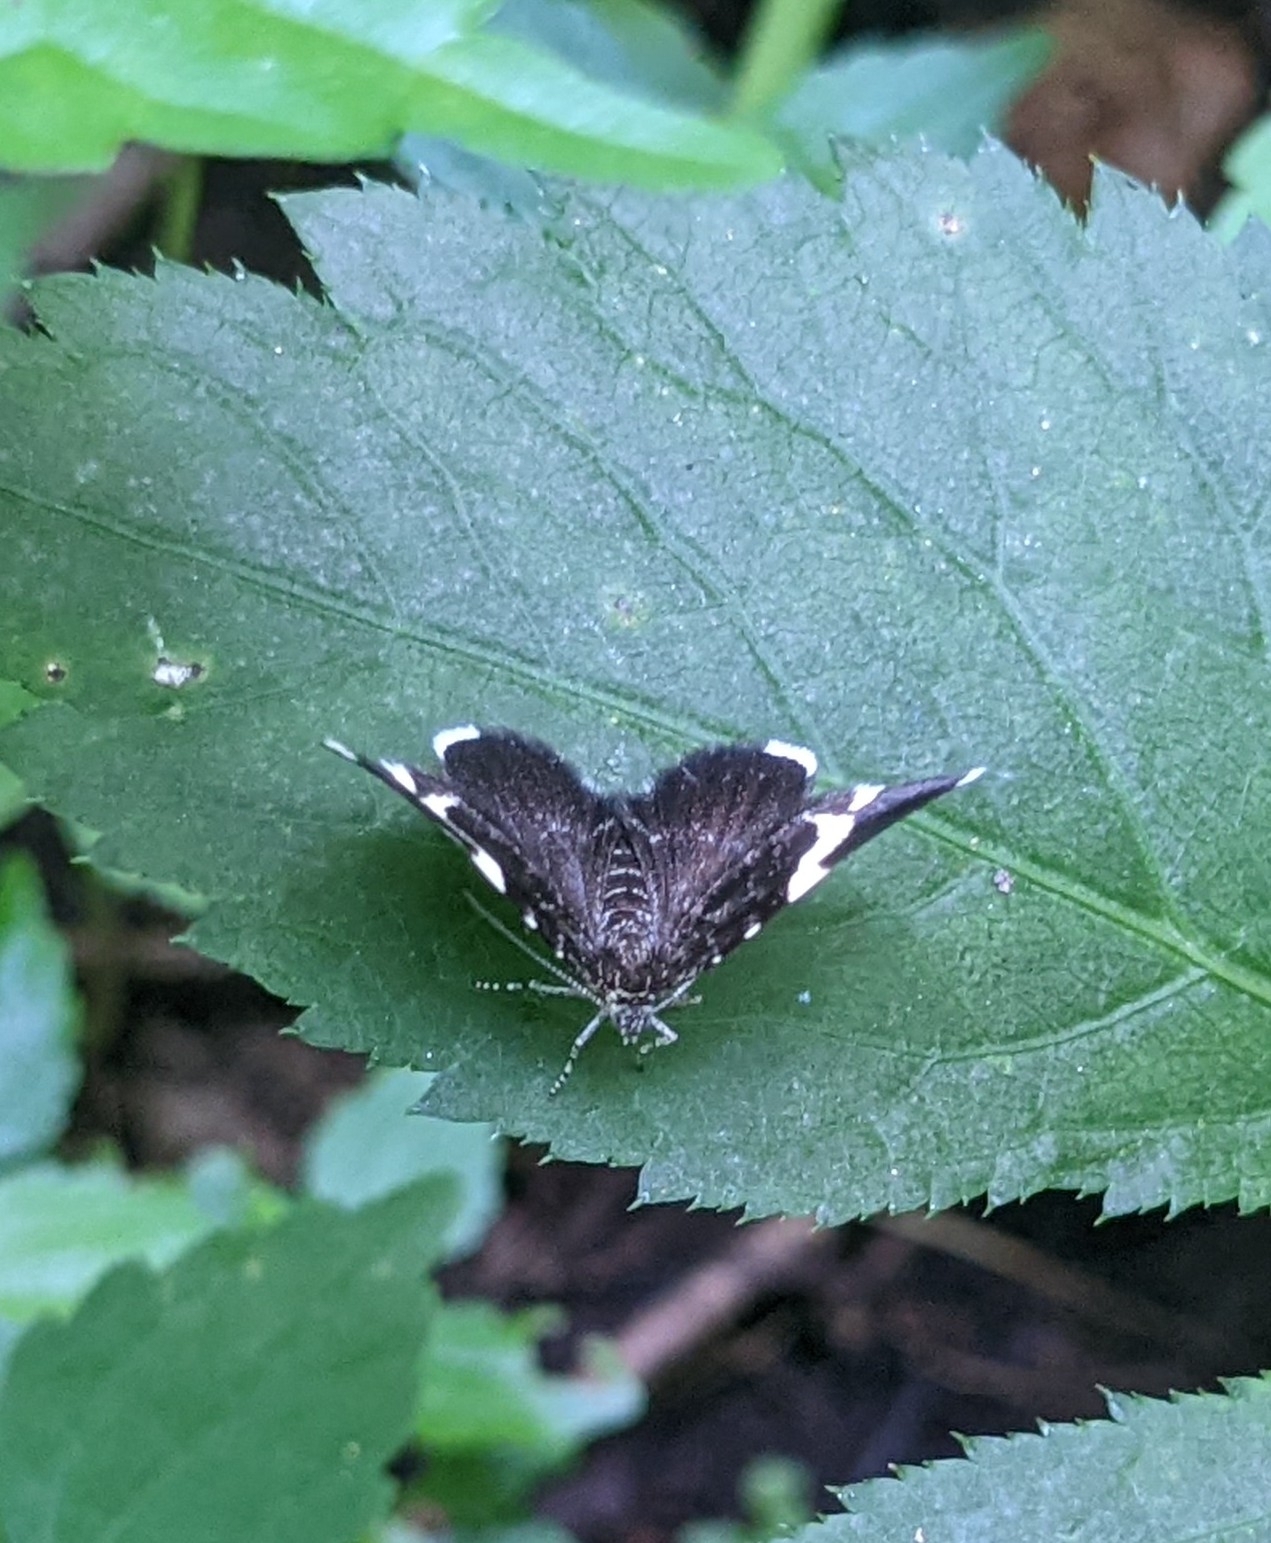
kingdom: Animalia
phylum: Arthropoda
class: Insecta
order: Lepidoptera
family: Geometridae
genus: Trichodezia
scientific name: Trichodezia albovittata
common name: White striped black
